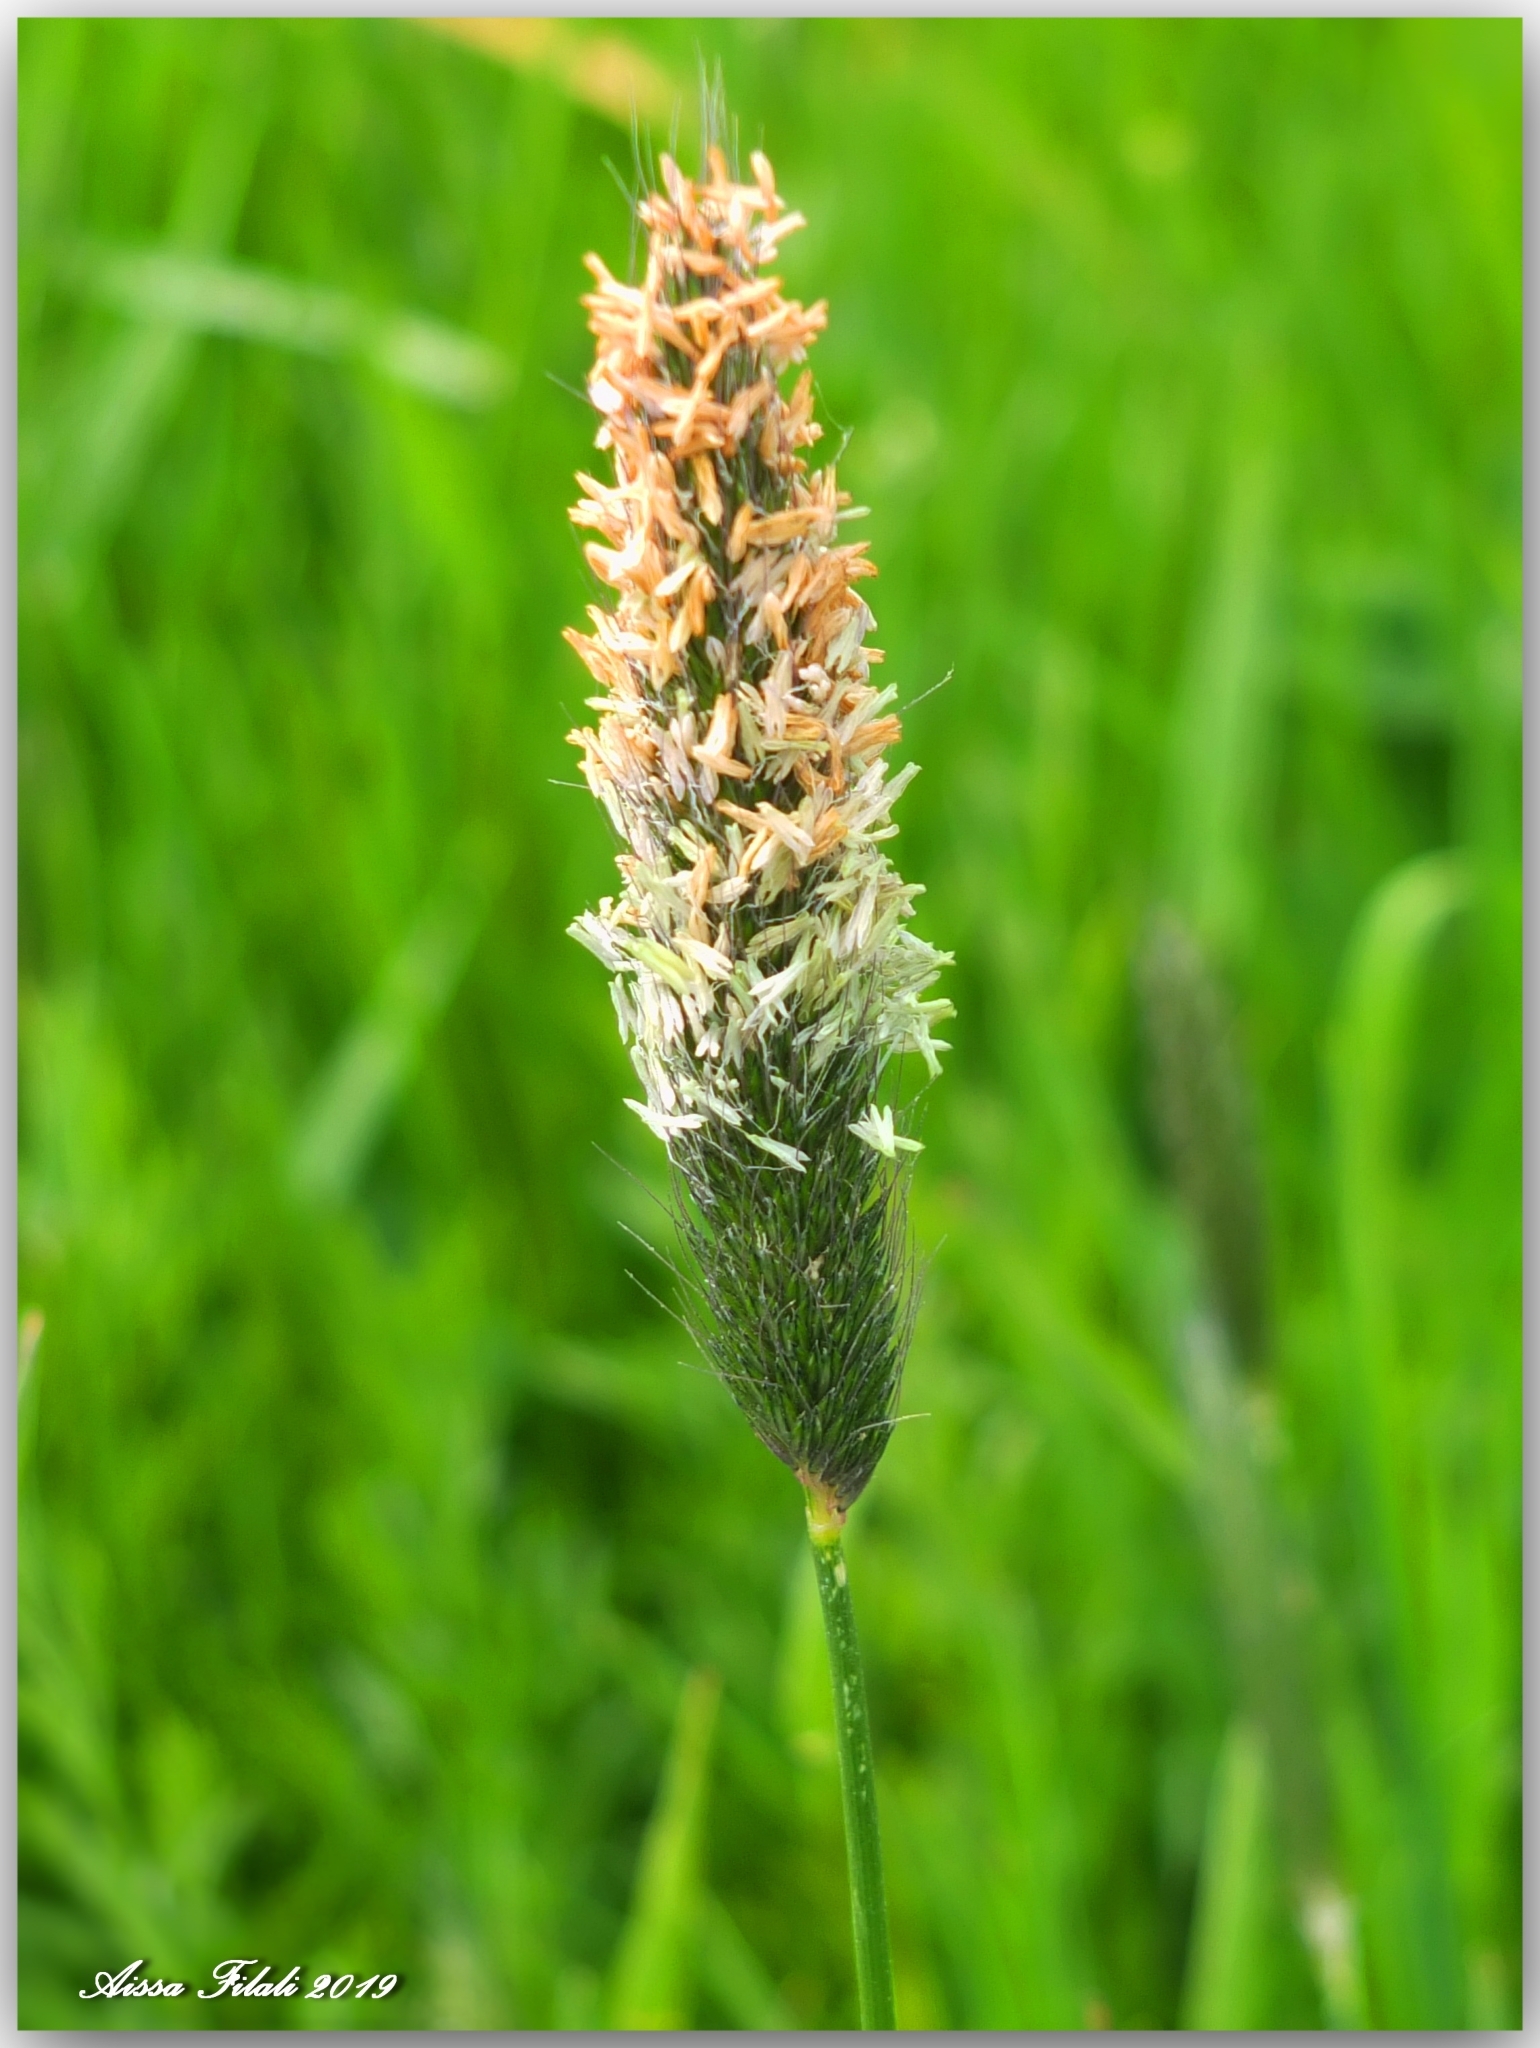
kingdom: Plantae
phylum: Tracheophyta
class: Liliopsida
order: Poales
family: Poaceae
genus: Alopecurus
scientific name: Alopecurus pratensis
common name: Meadow foxtail
